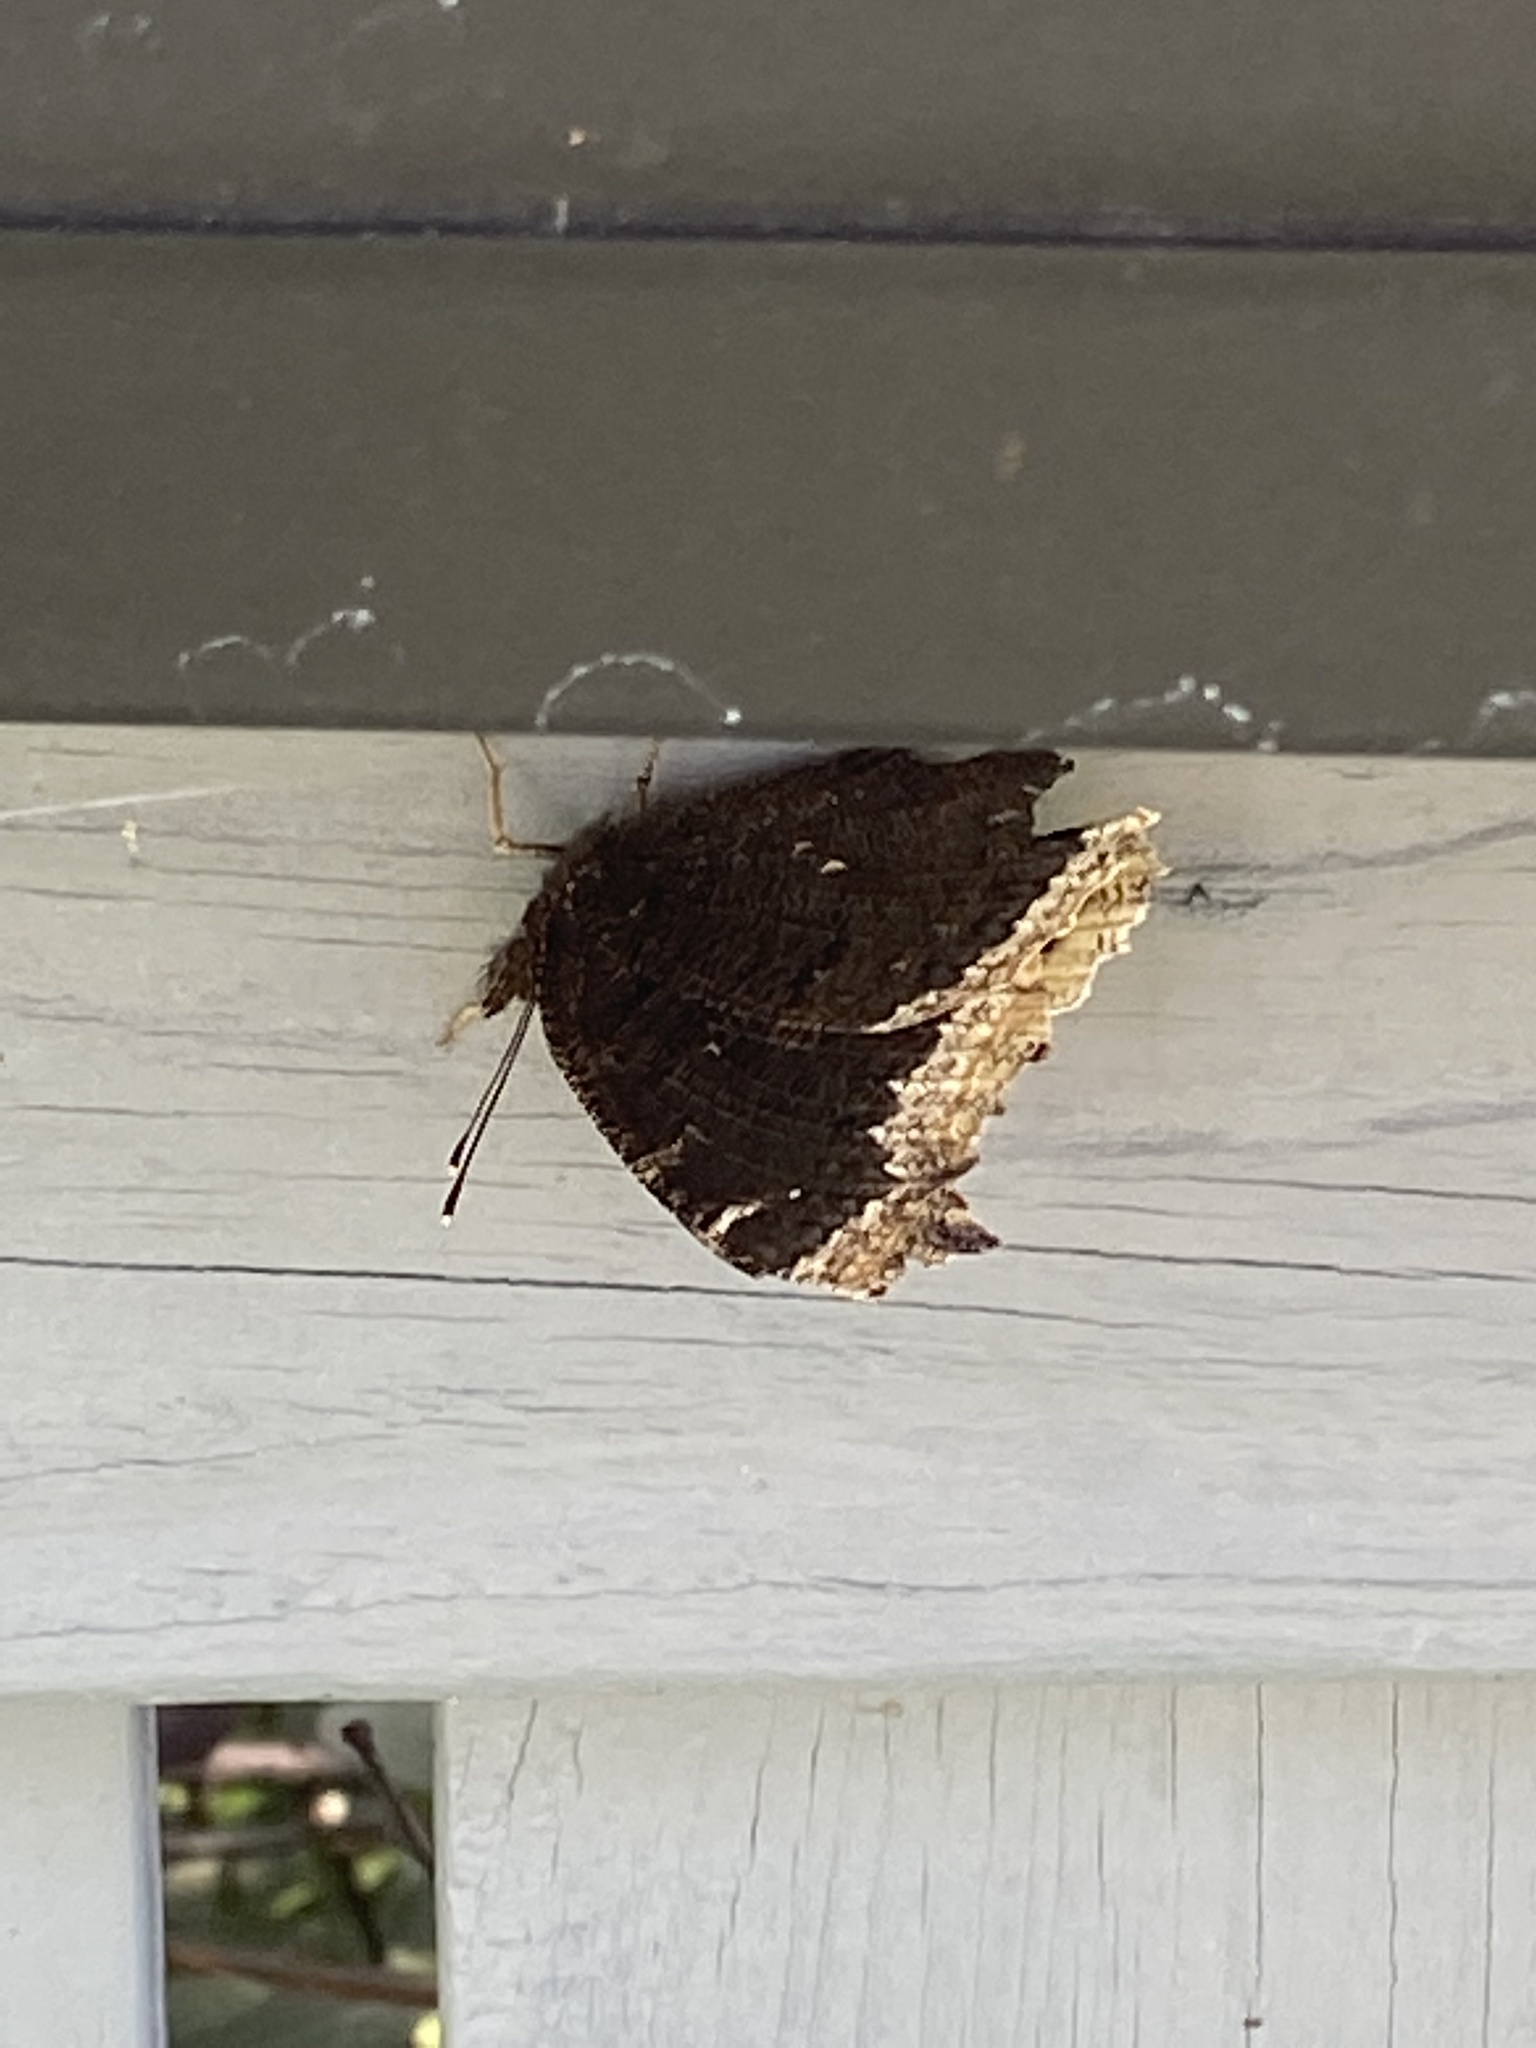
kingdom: Animalia
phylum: Arthropoda
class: Insecta
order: Lepidoptera
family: Nymphalidae
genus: Nymphalis
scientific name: Nymphalis antiopa
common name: Camberwell beauty
